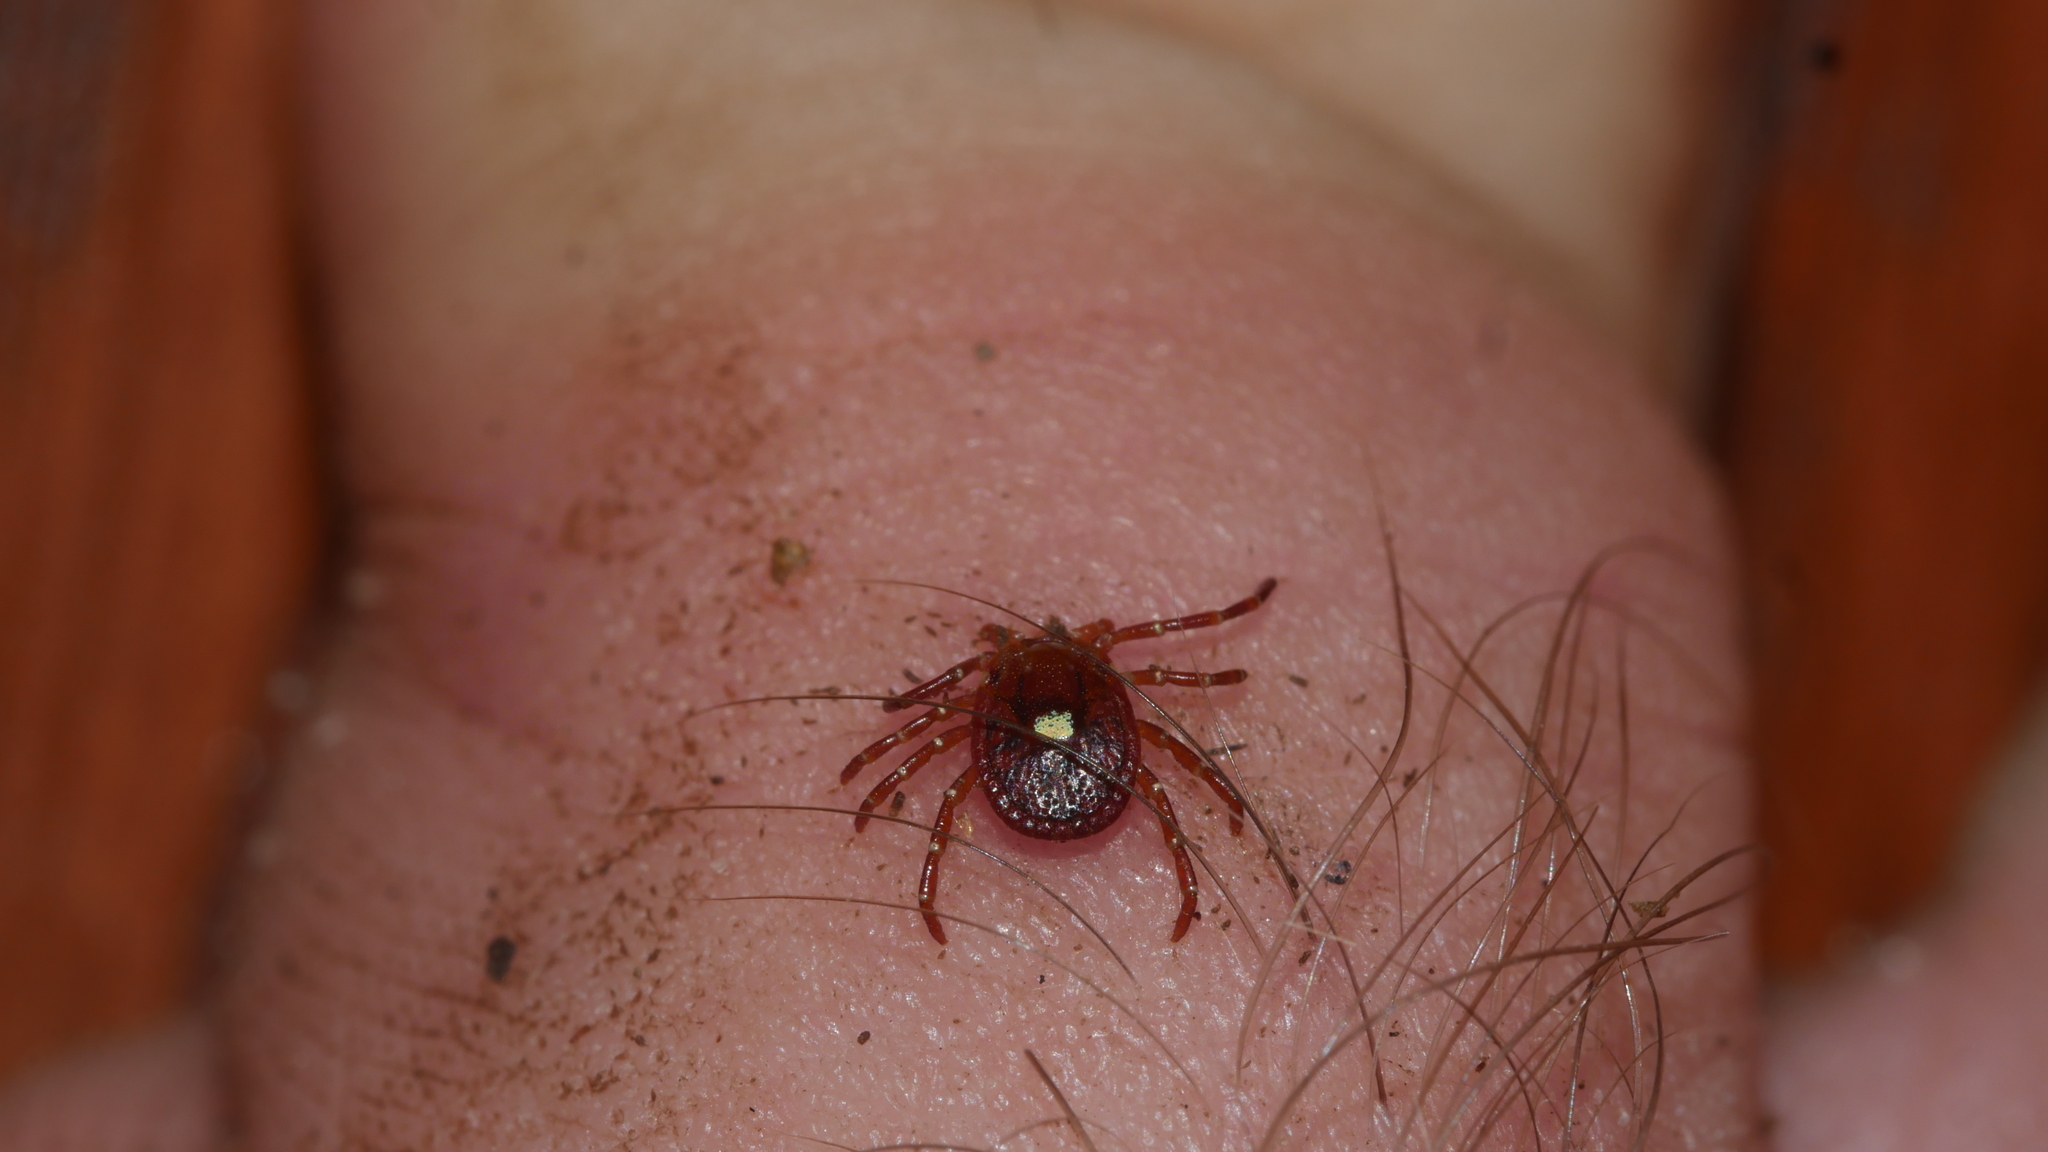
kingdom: Animalia
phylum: Arthropoda
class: Arachnida
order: Ixodida
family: Ixodidae
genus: Amblyomma
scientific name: Amblyomma americanum
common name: Lone star tick
